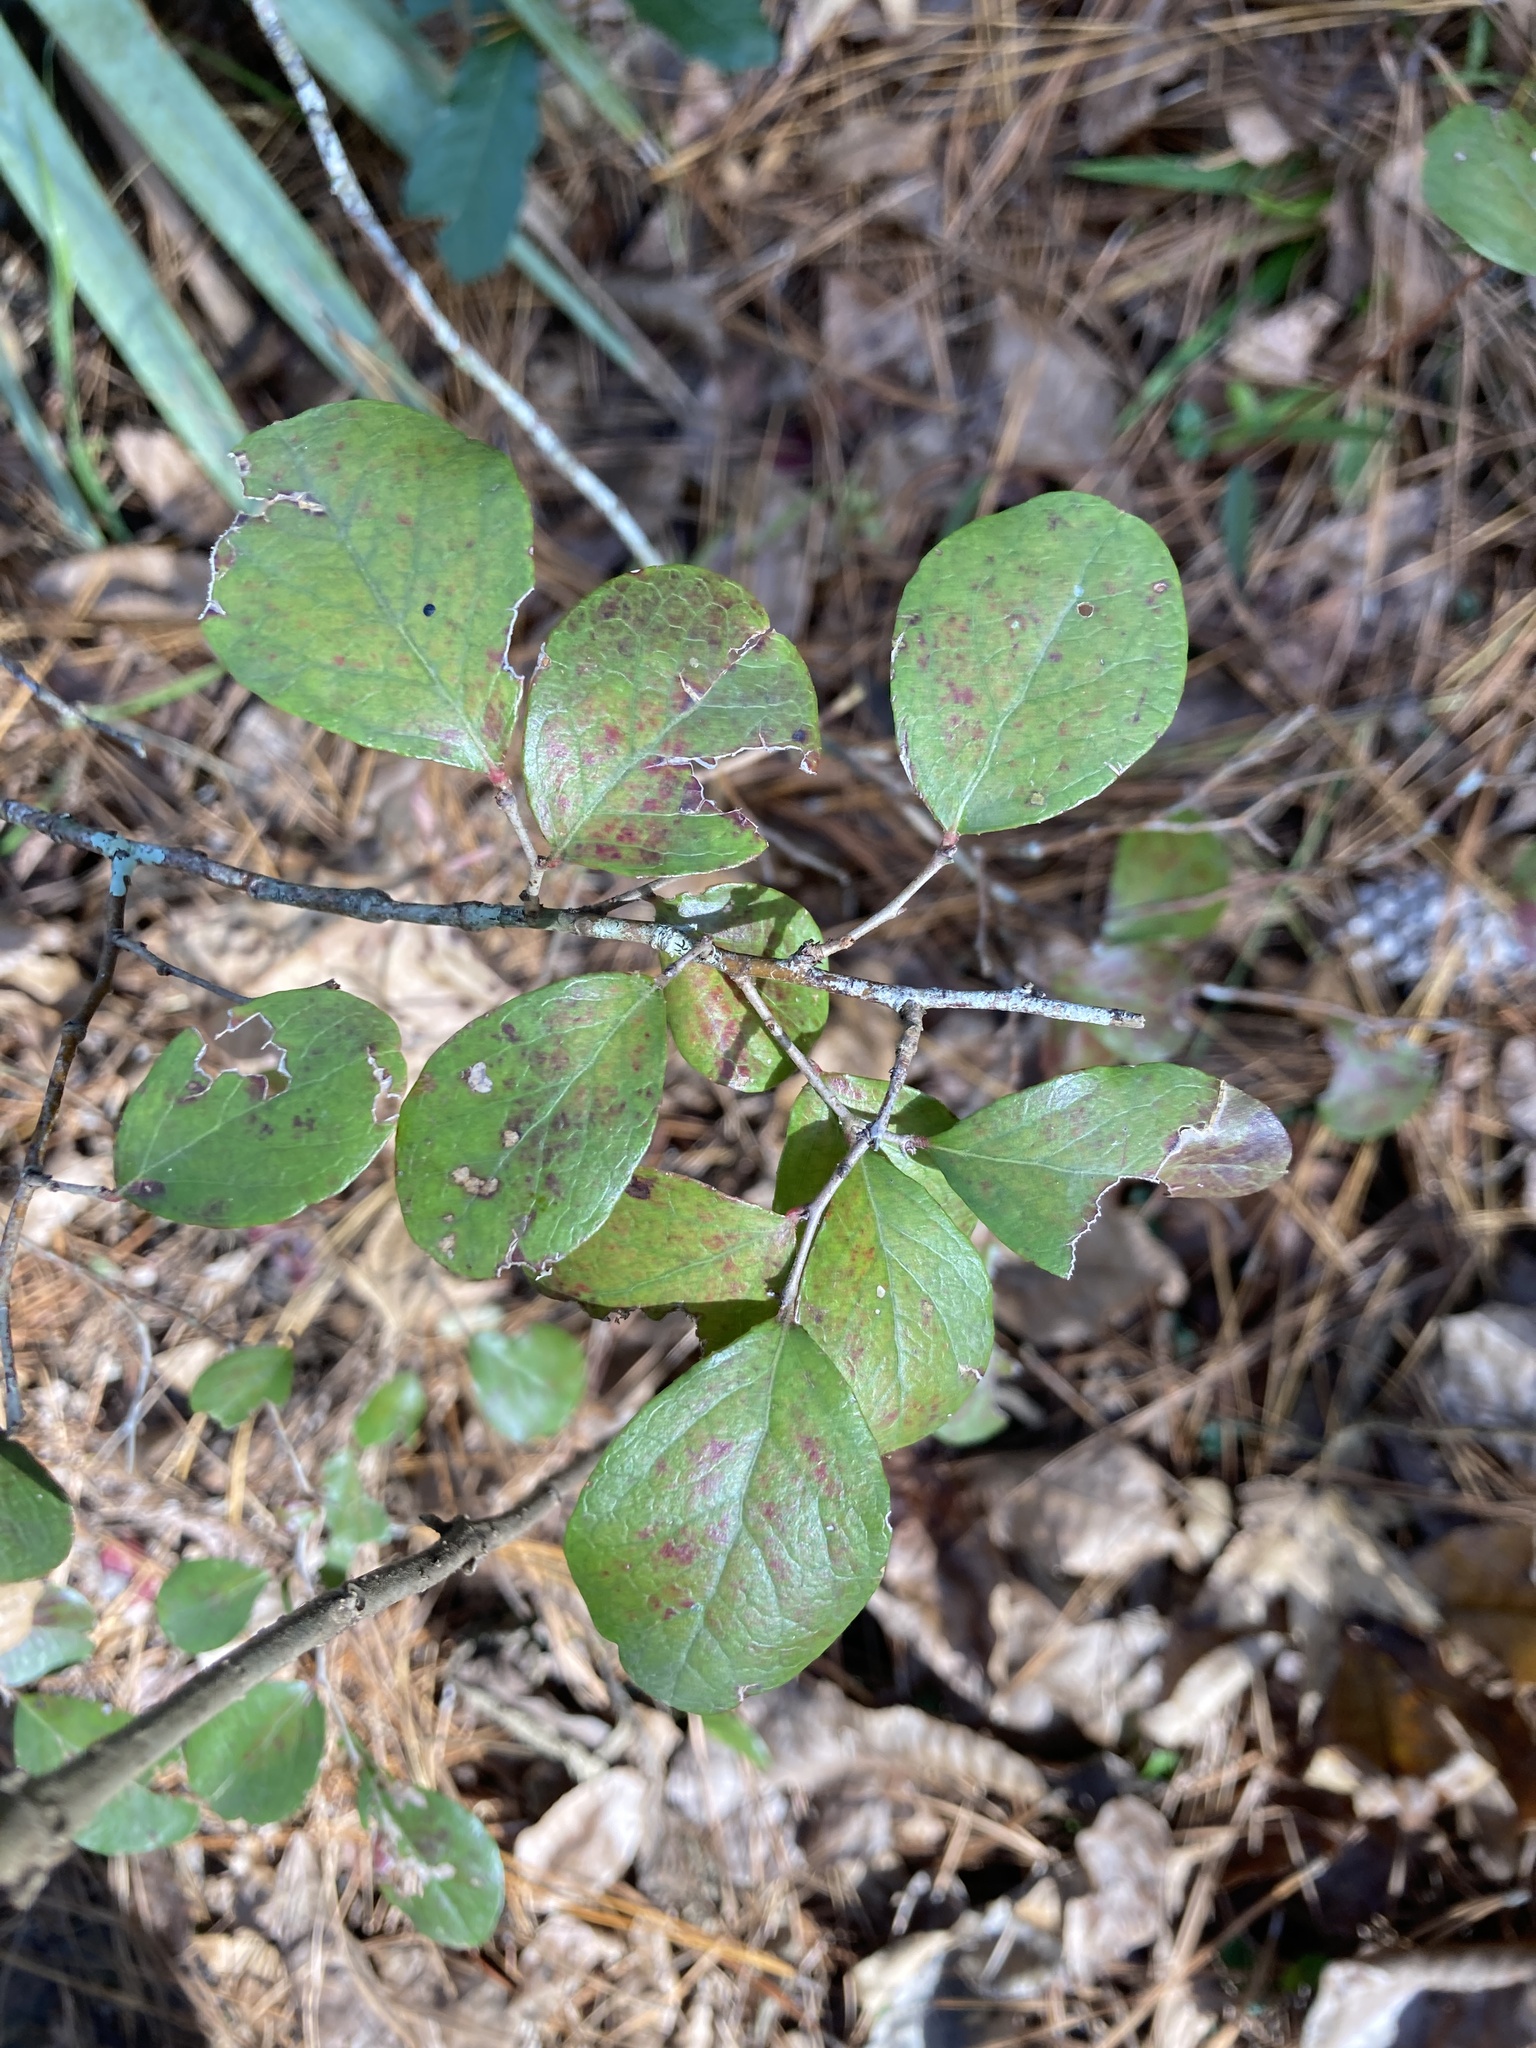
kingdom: Plantae
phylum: Tracheophyta
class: Magnoliopsida
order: Ericales
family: Ericaceae
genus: Vaccinium
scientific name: Vaccinium arboreum
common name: Farkleberry
